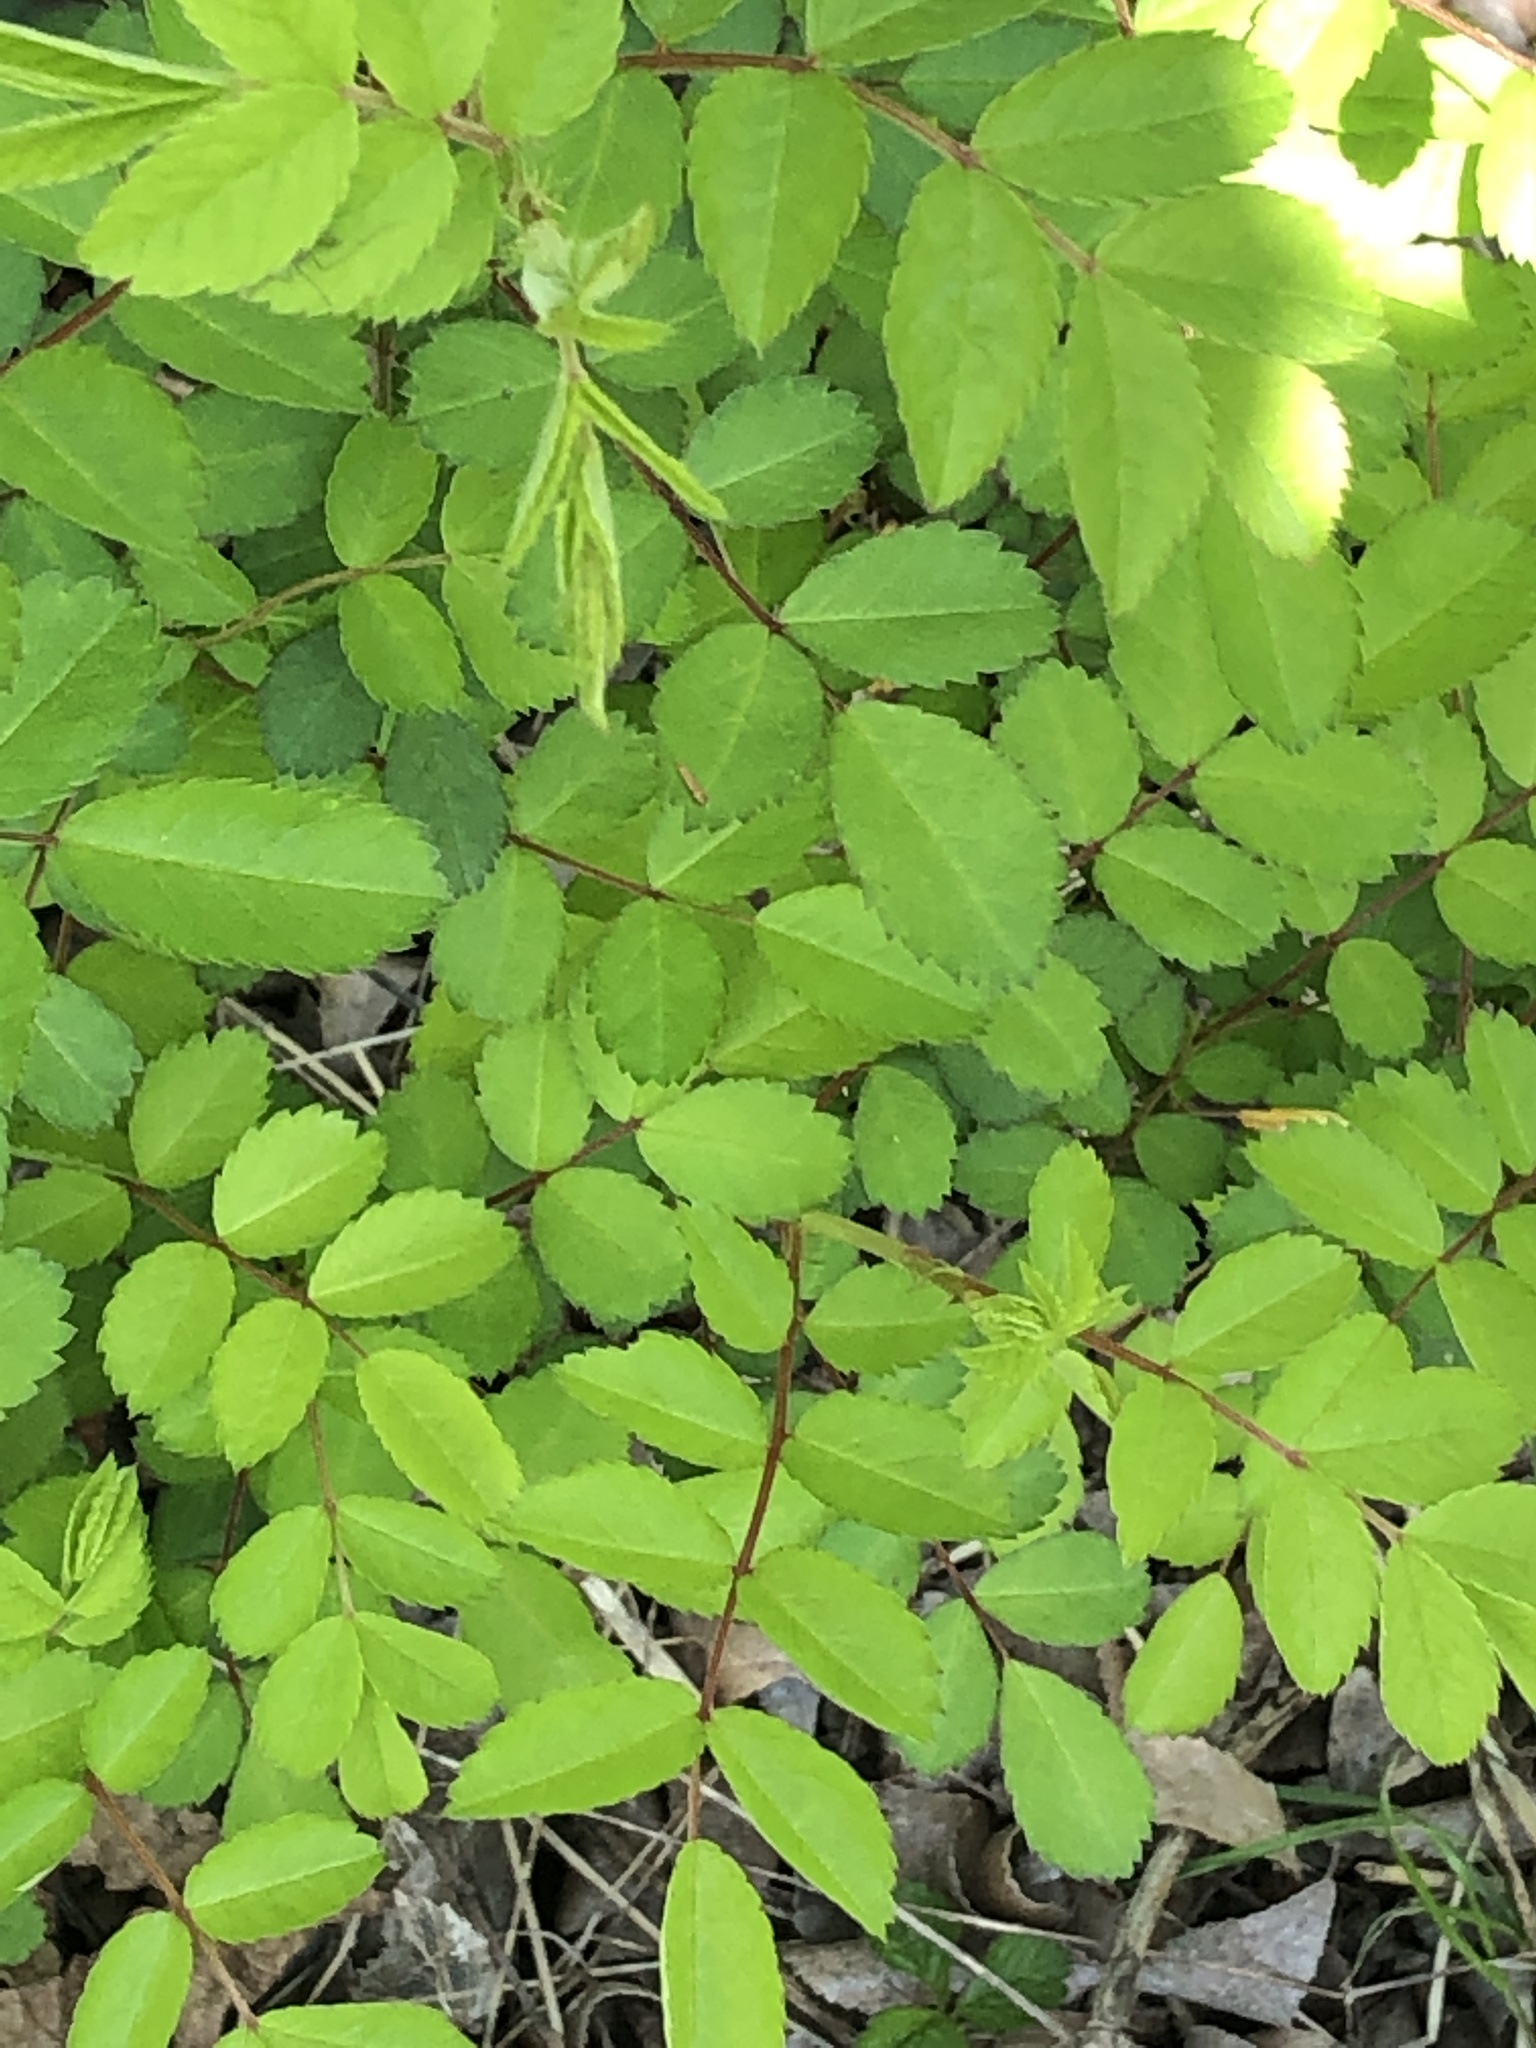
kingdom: Plantae
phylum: Tracheophyta
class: Magnoliopsida
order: Rosales
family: Rosaceae
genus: Rosa
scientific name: Rosa multiflora
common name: Multiflora rose
